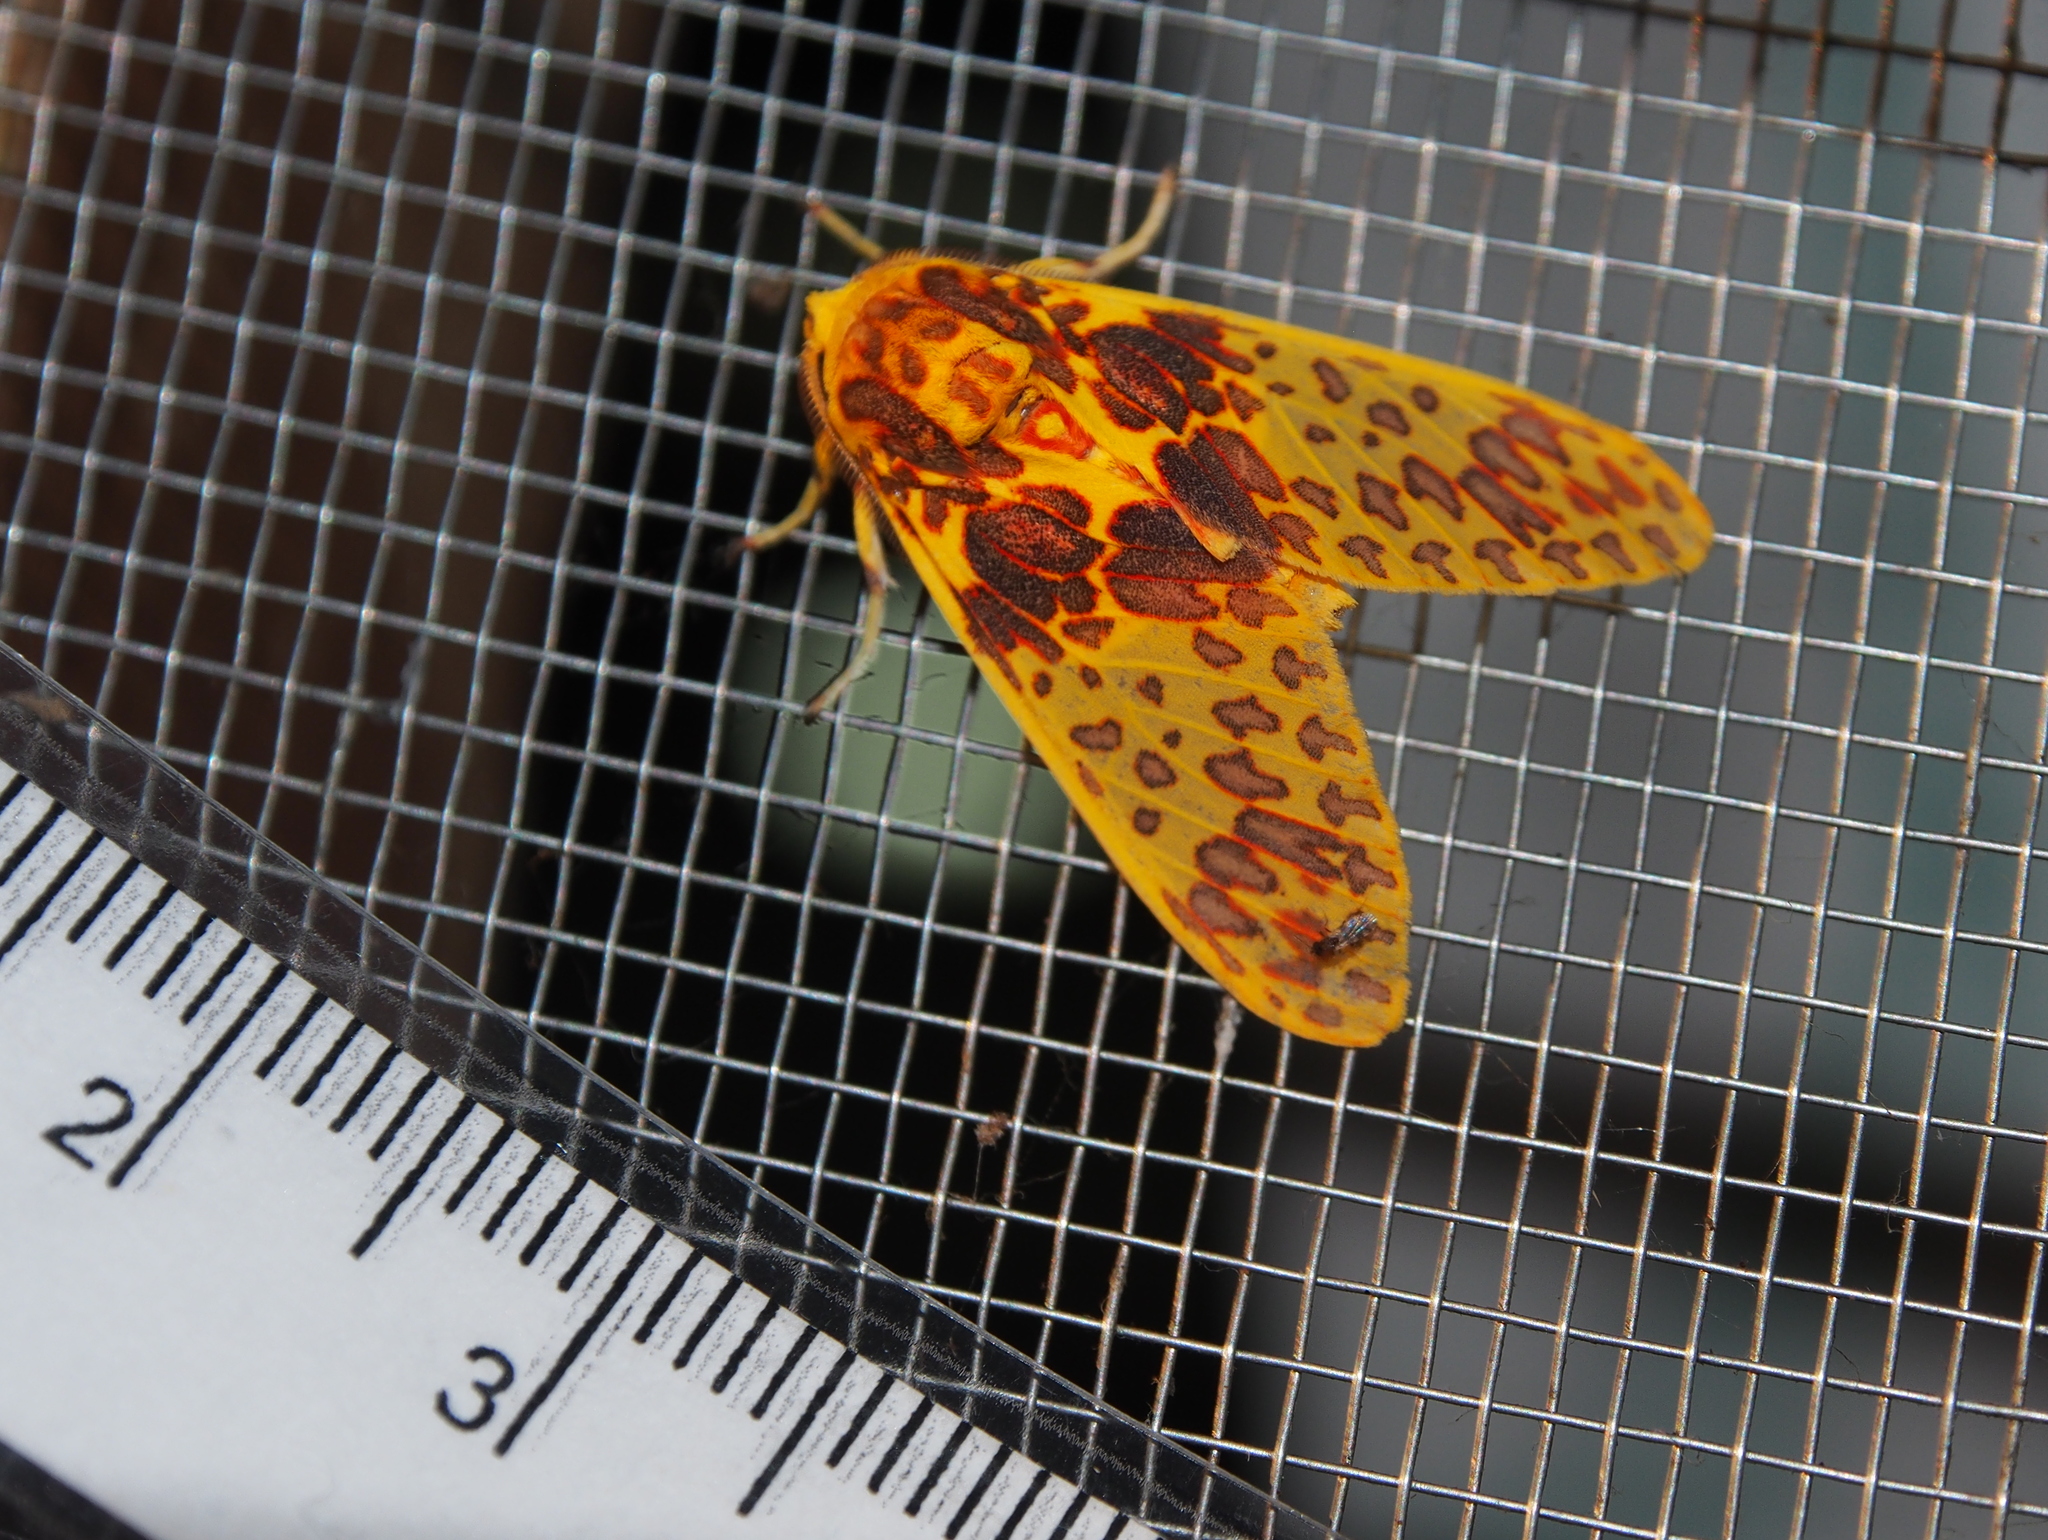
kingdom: Animalia
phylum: Arthropoda
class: Insecta
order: Lepidoptera
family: Erebidae
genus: Amaxia
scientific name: Amaxia lepida
